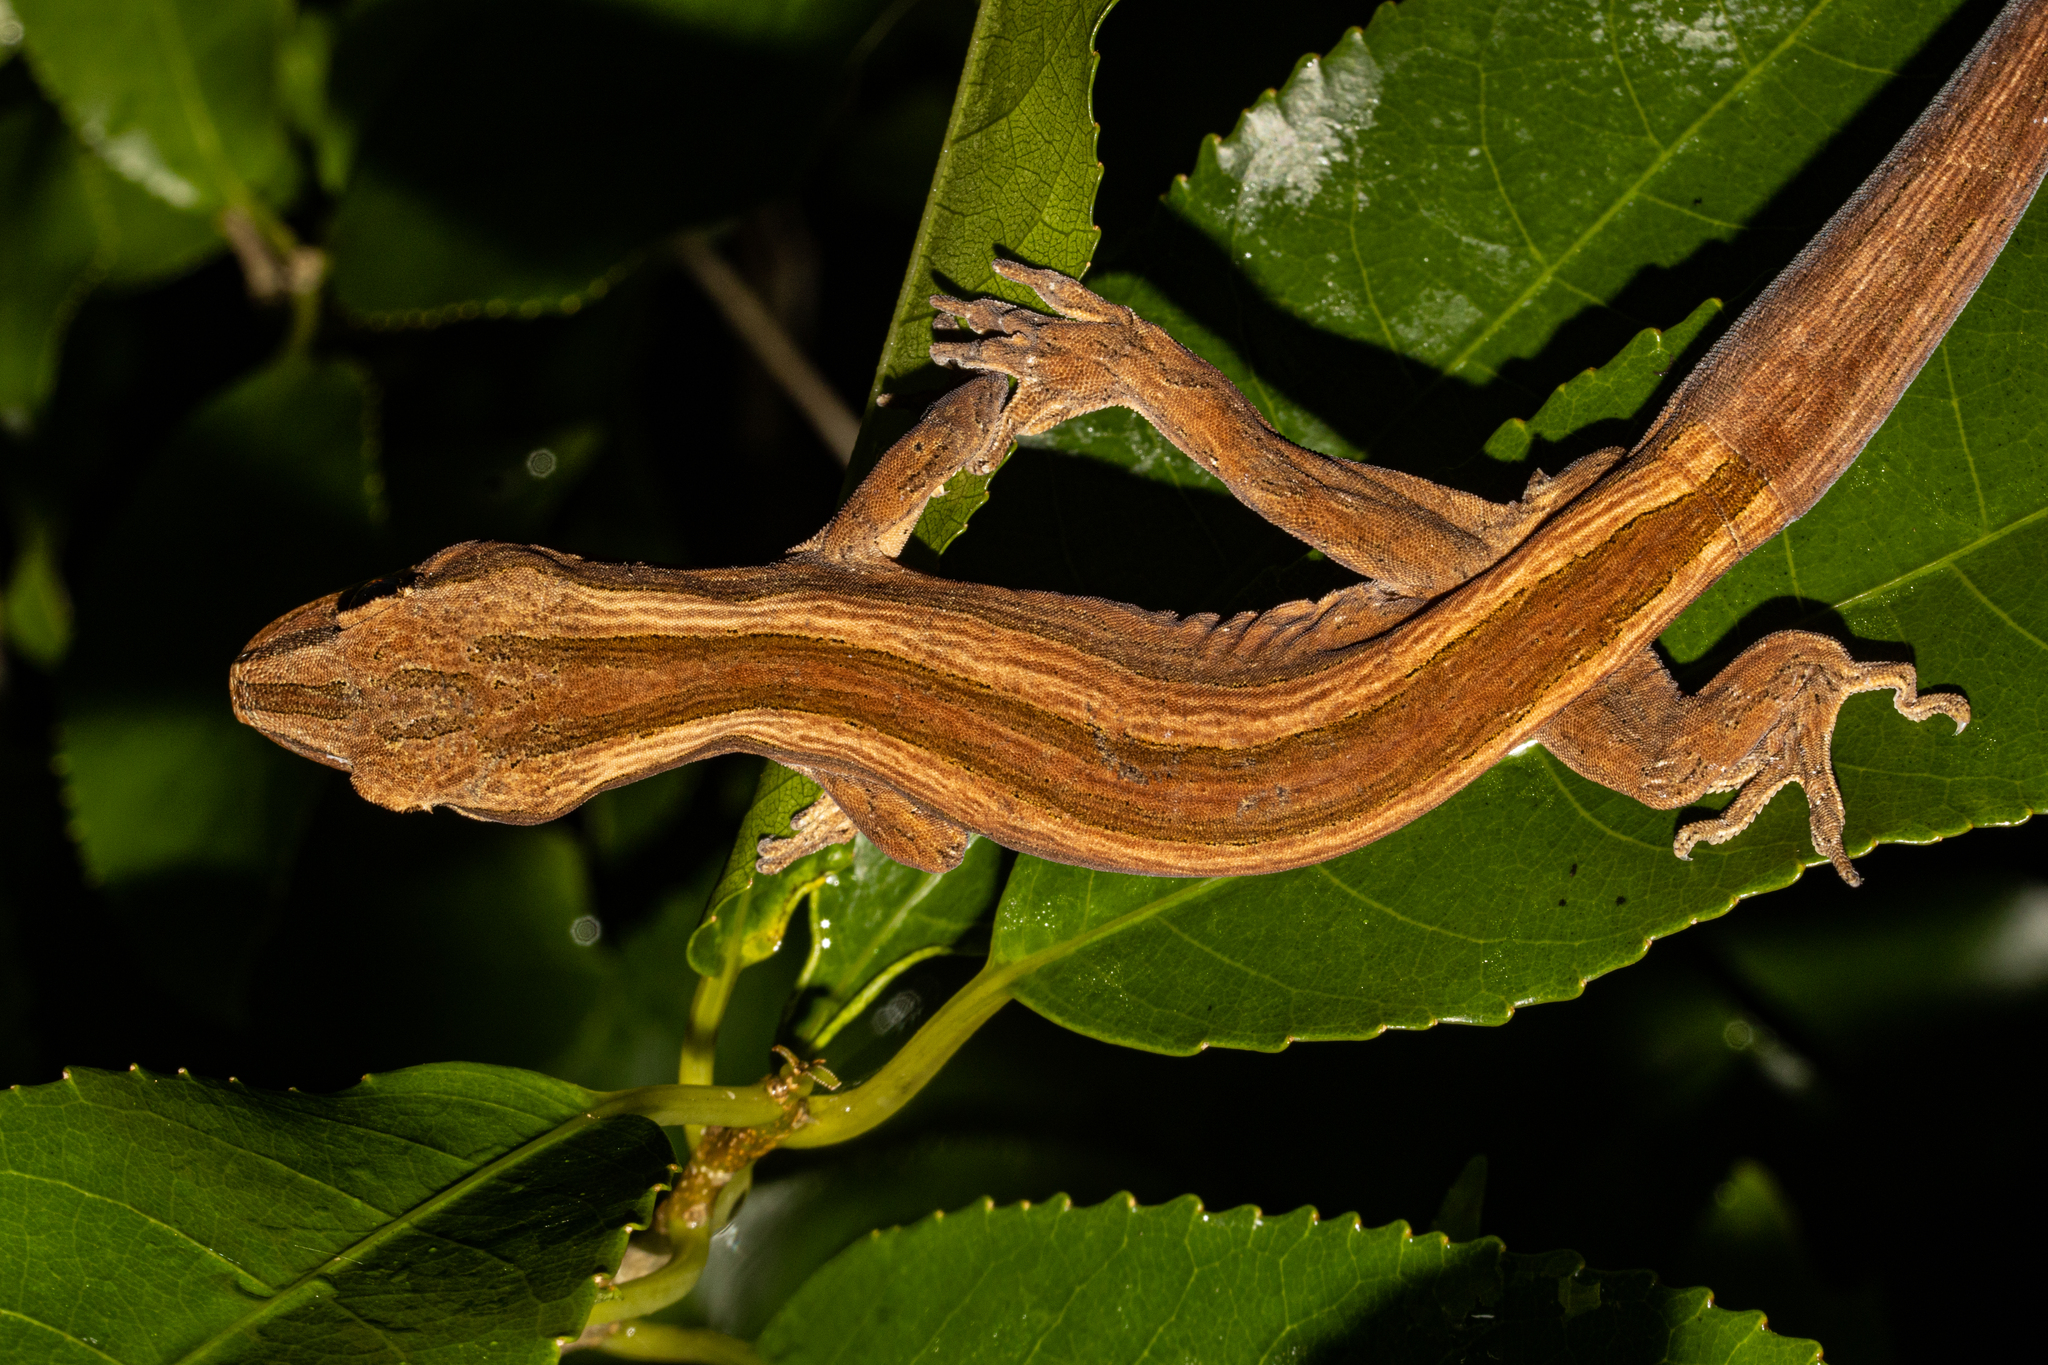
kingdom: Animalia
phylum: Chordata
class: Squamata
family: Diplodactylidae
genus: Toropuku
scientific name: Toropuku inexpectatus
